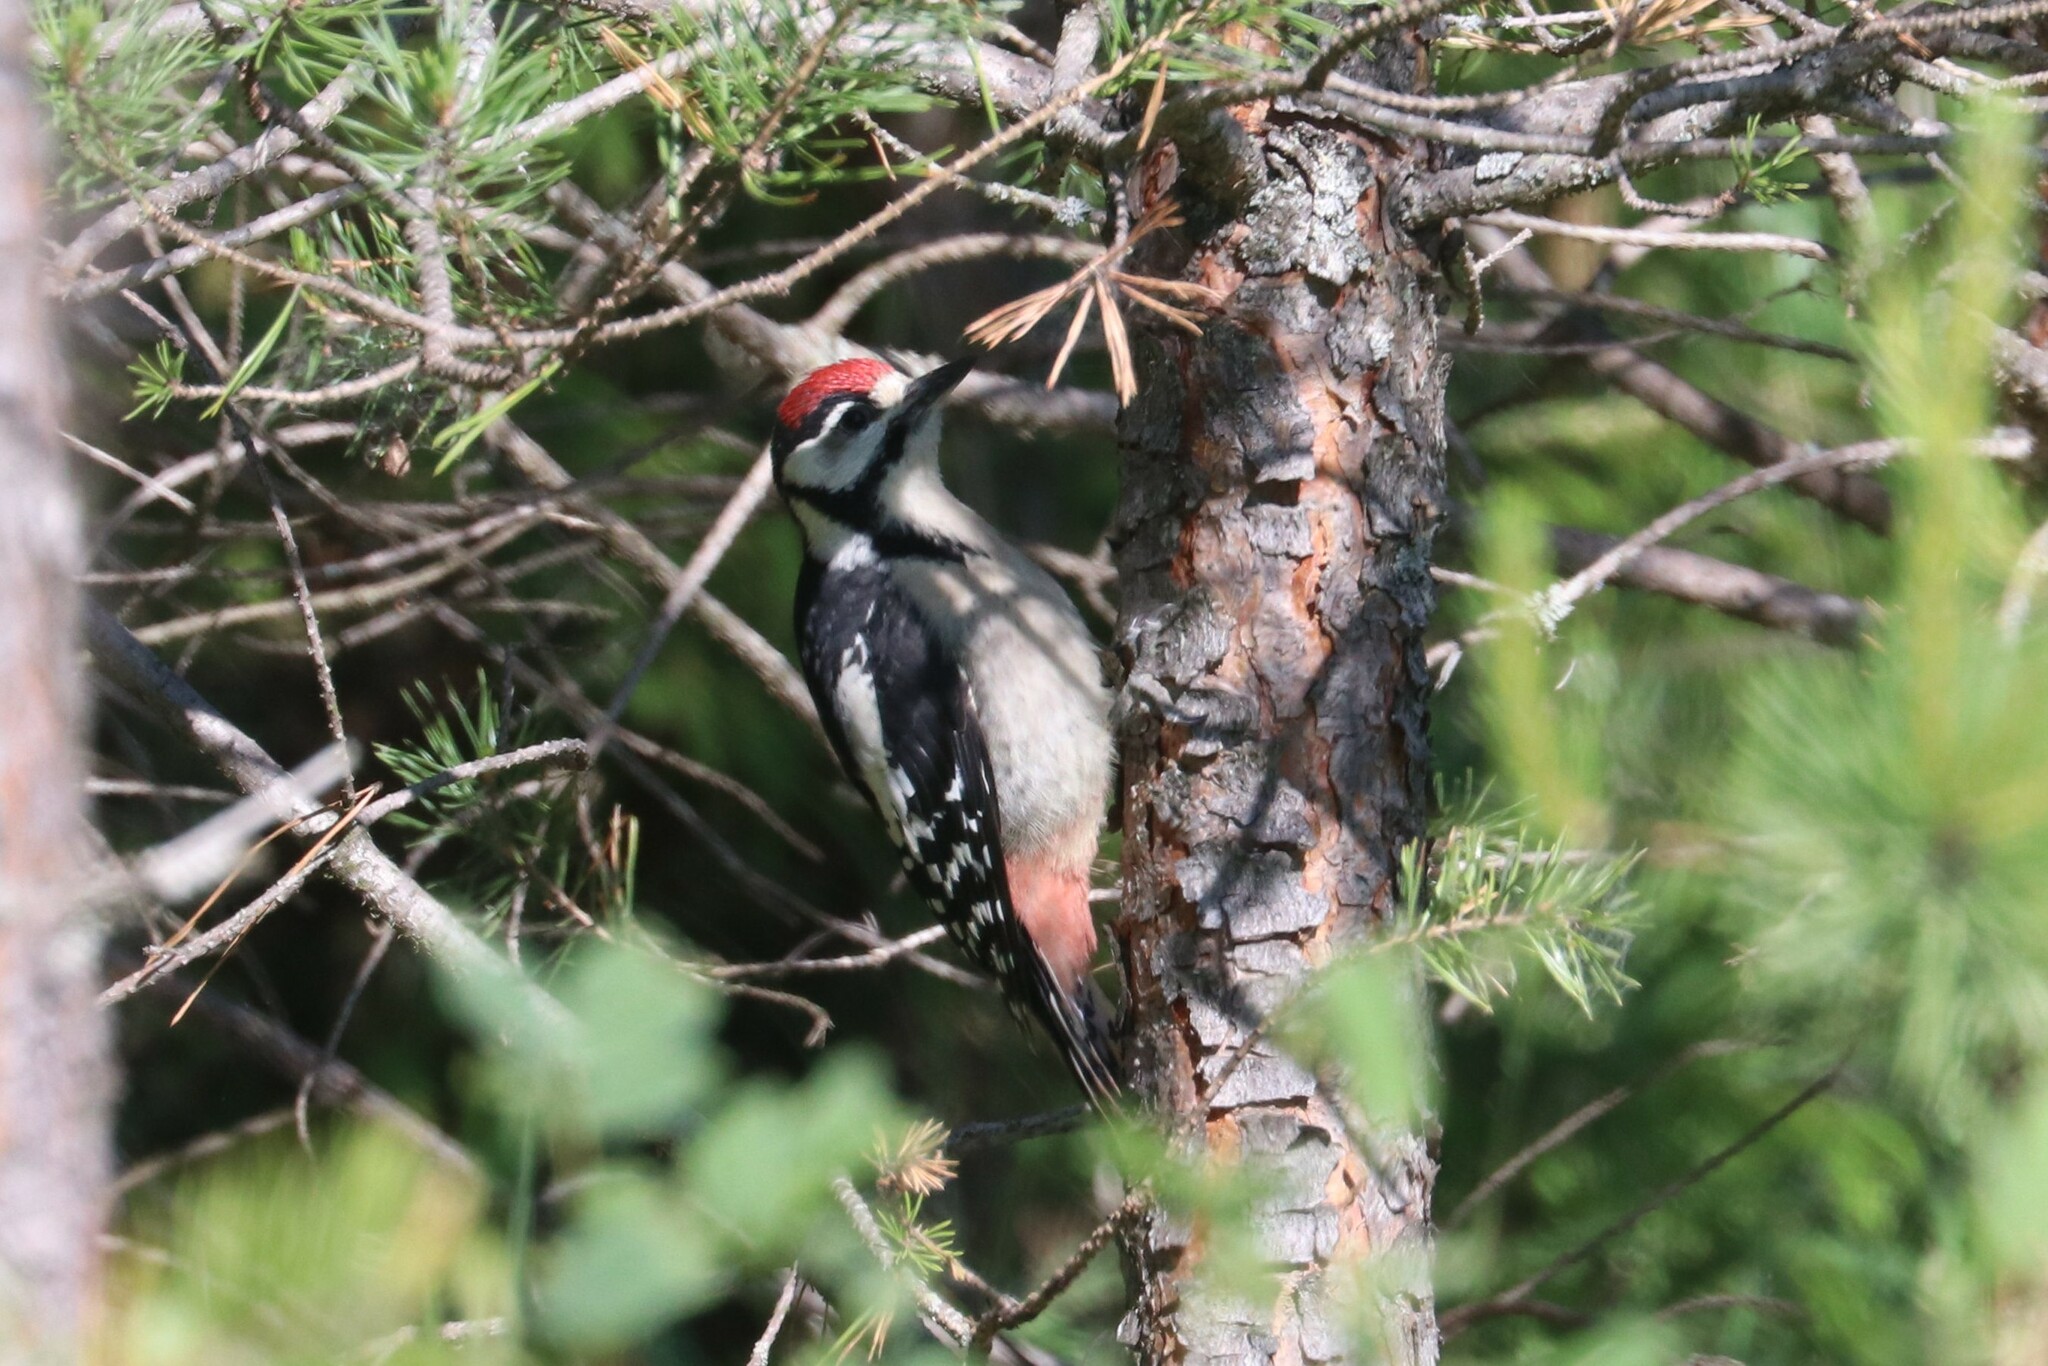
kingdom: Animalia
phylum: Chordata
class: Aves
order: Piciformes
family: Picidae
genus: Dendrocopos
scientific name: Dendrocopos major
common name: Great spotted woodpecker
